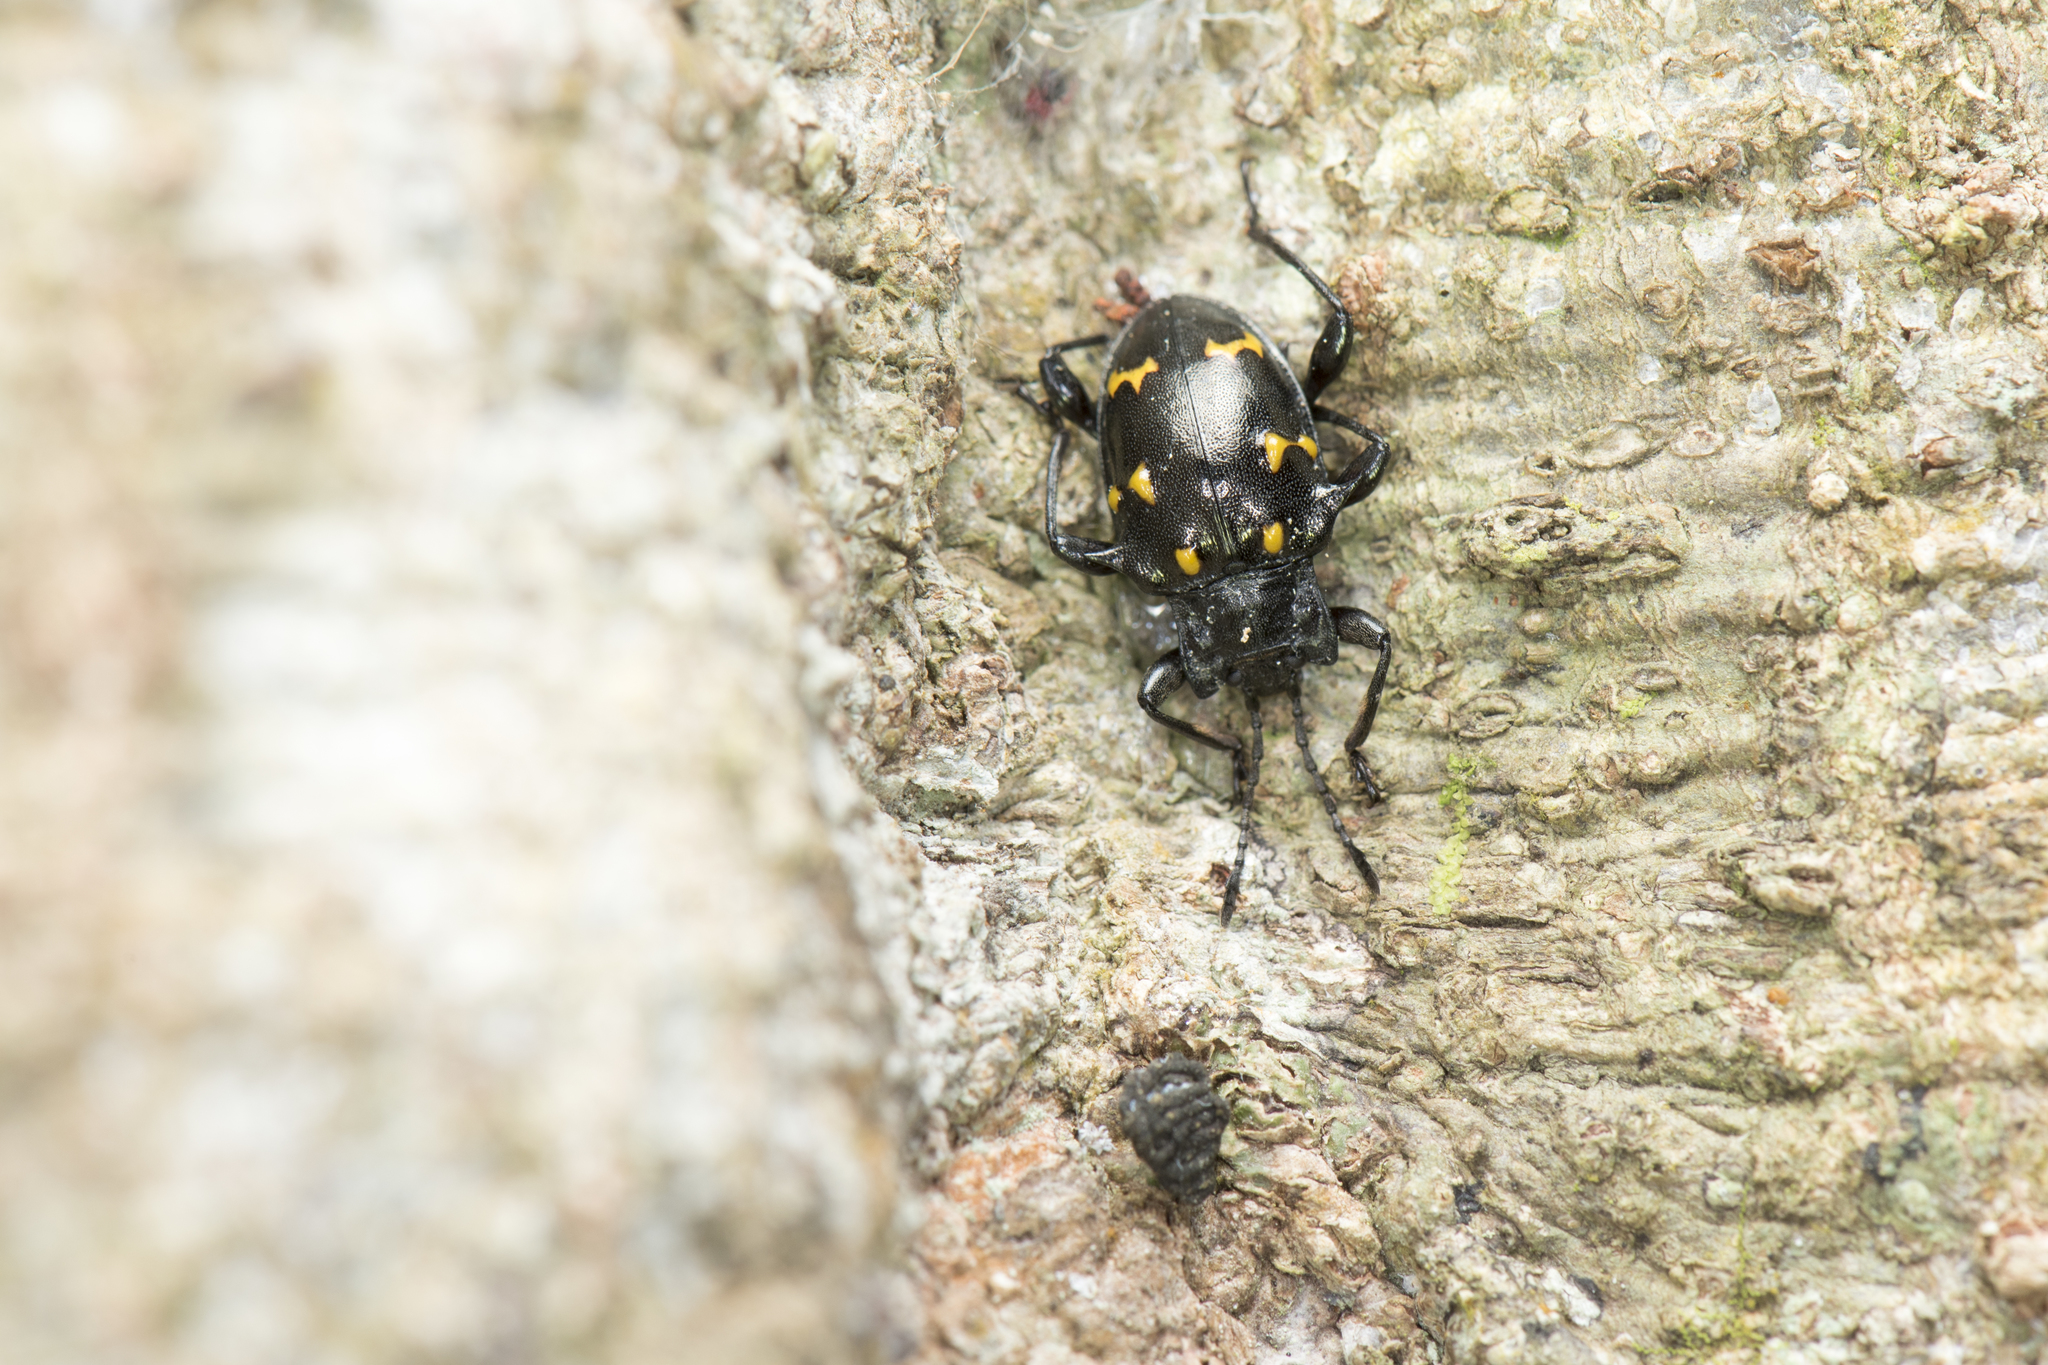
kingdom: Animalia
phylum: Arthropoda
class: Insecta
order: Coleoptera
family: Endomychidae
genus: Amphistethus
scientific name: Amphistethus astarte
